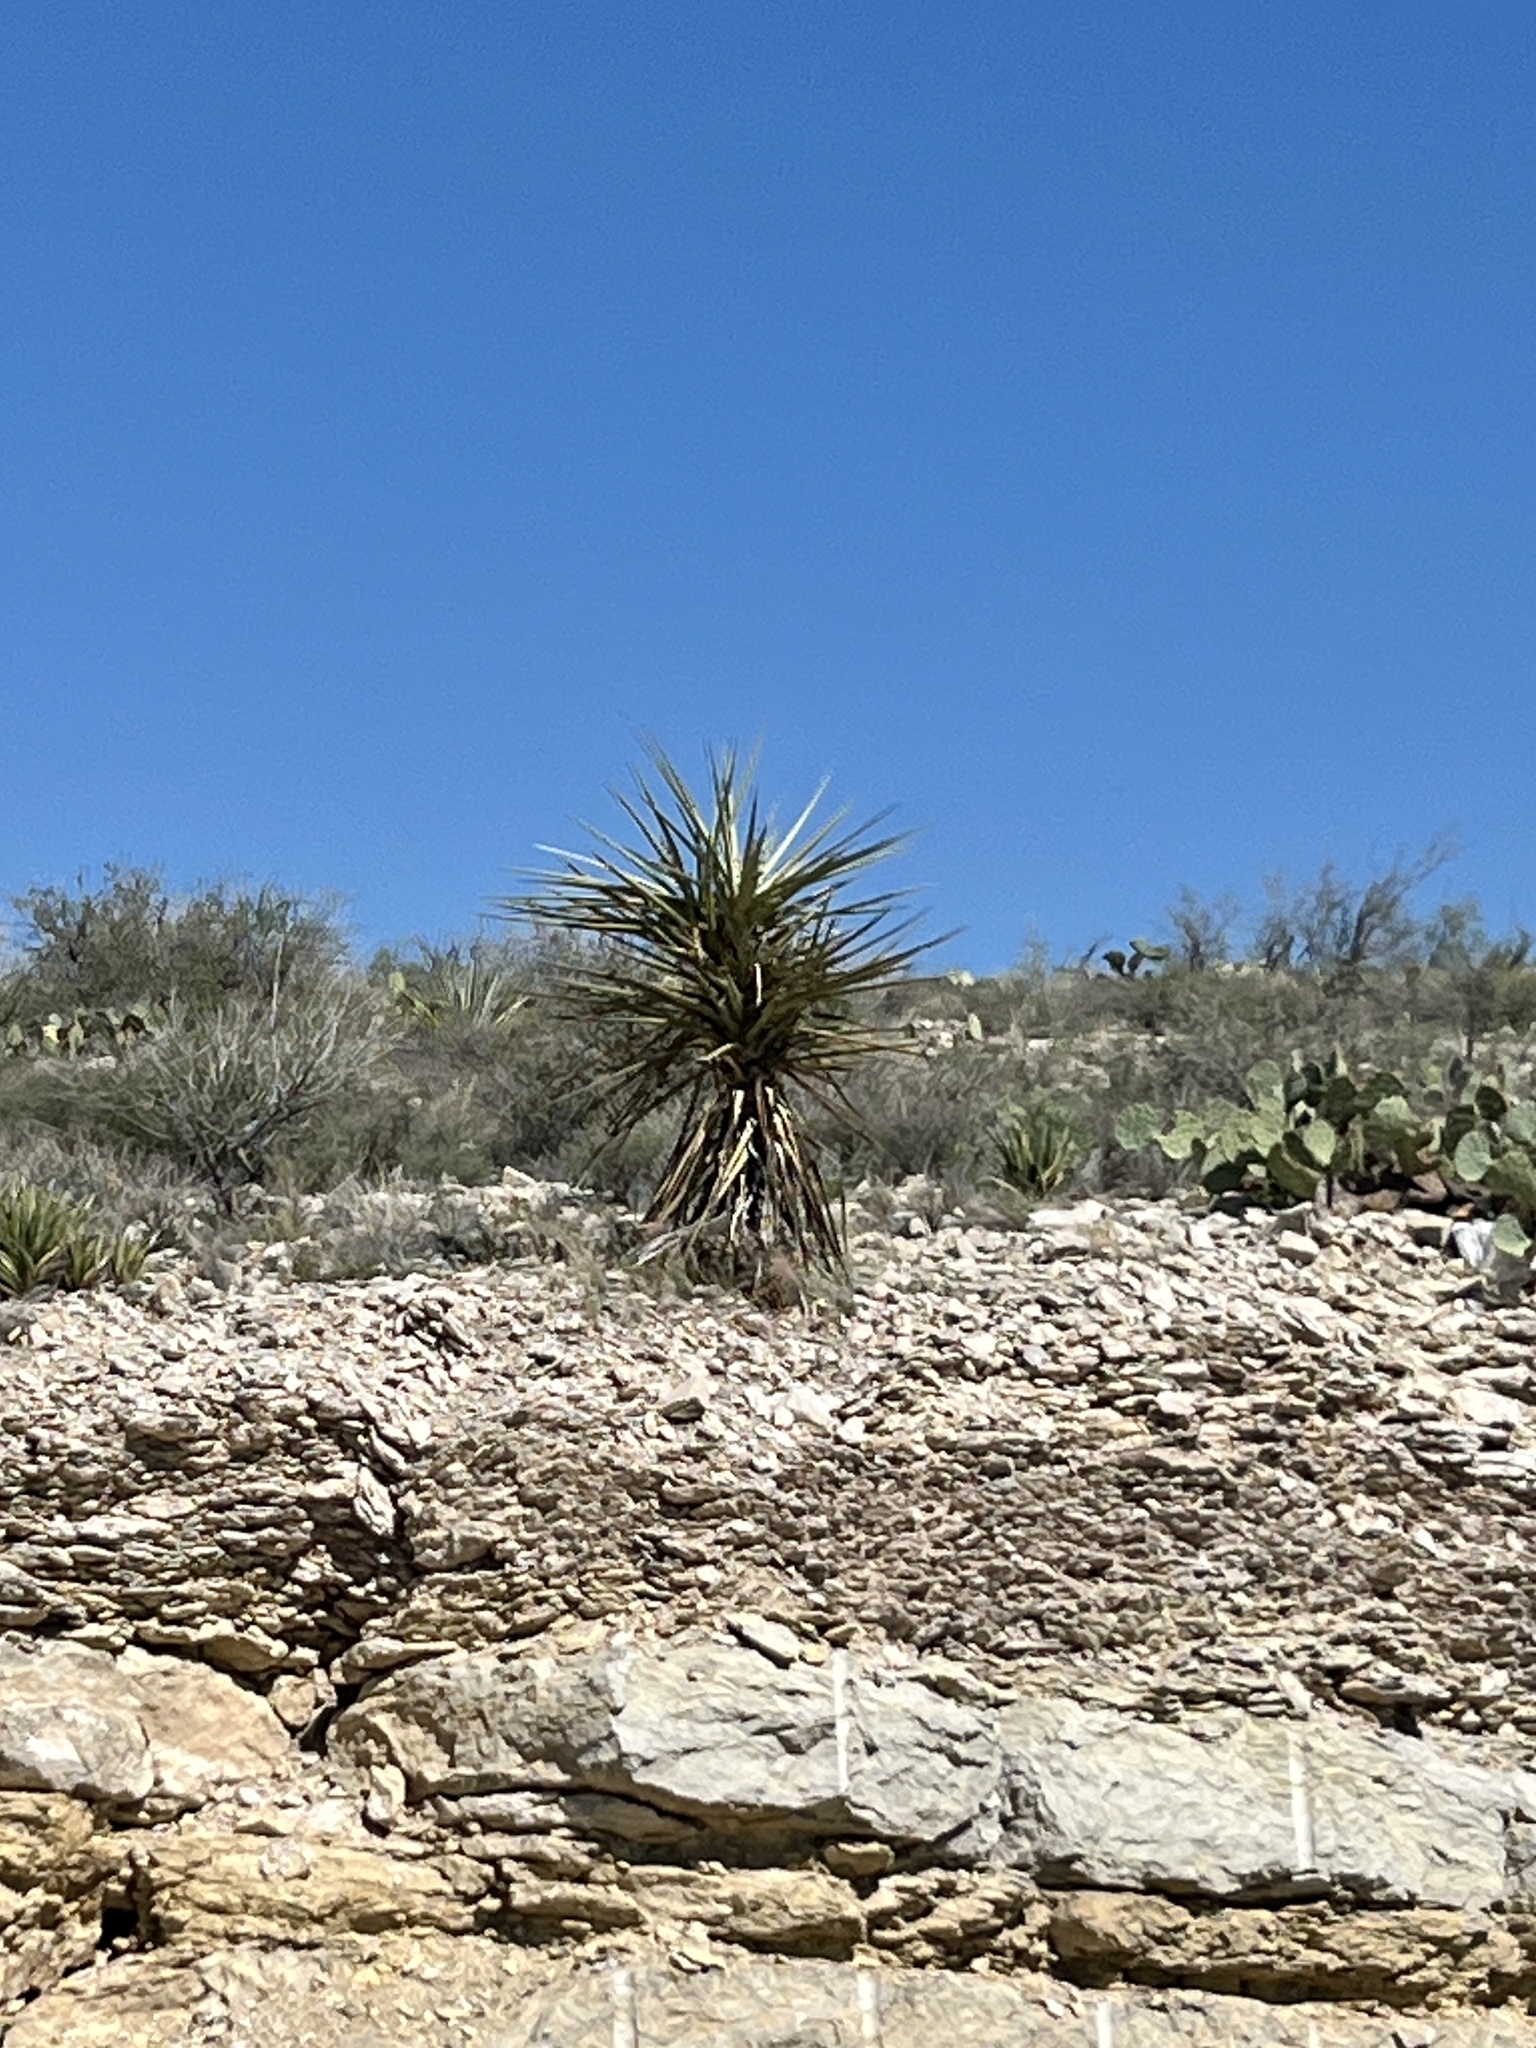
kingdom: Plantae
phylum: Tracheophyta
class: Liliopsida
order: Asparagales
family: Asparagaceae
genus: Yucca
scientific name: Yucca treculiana
